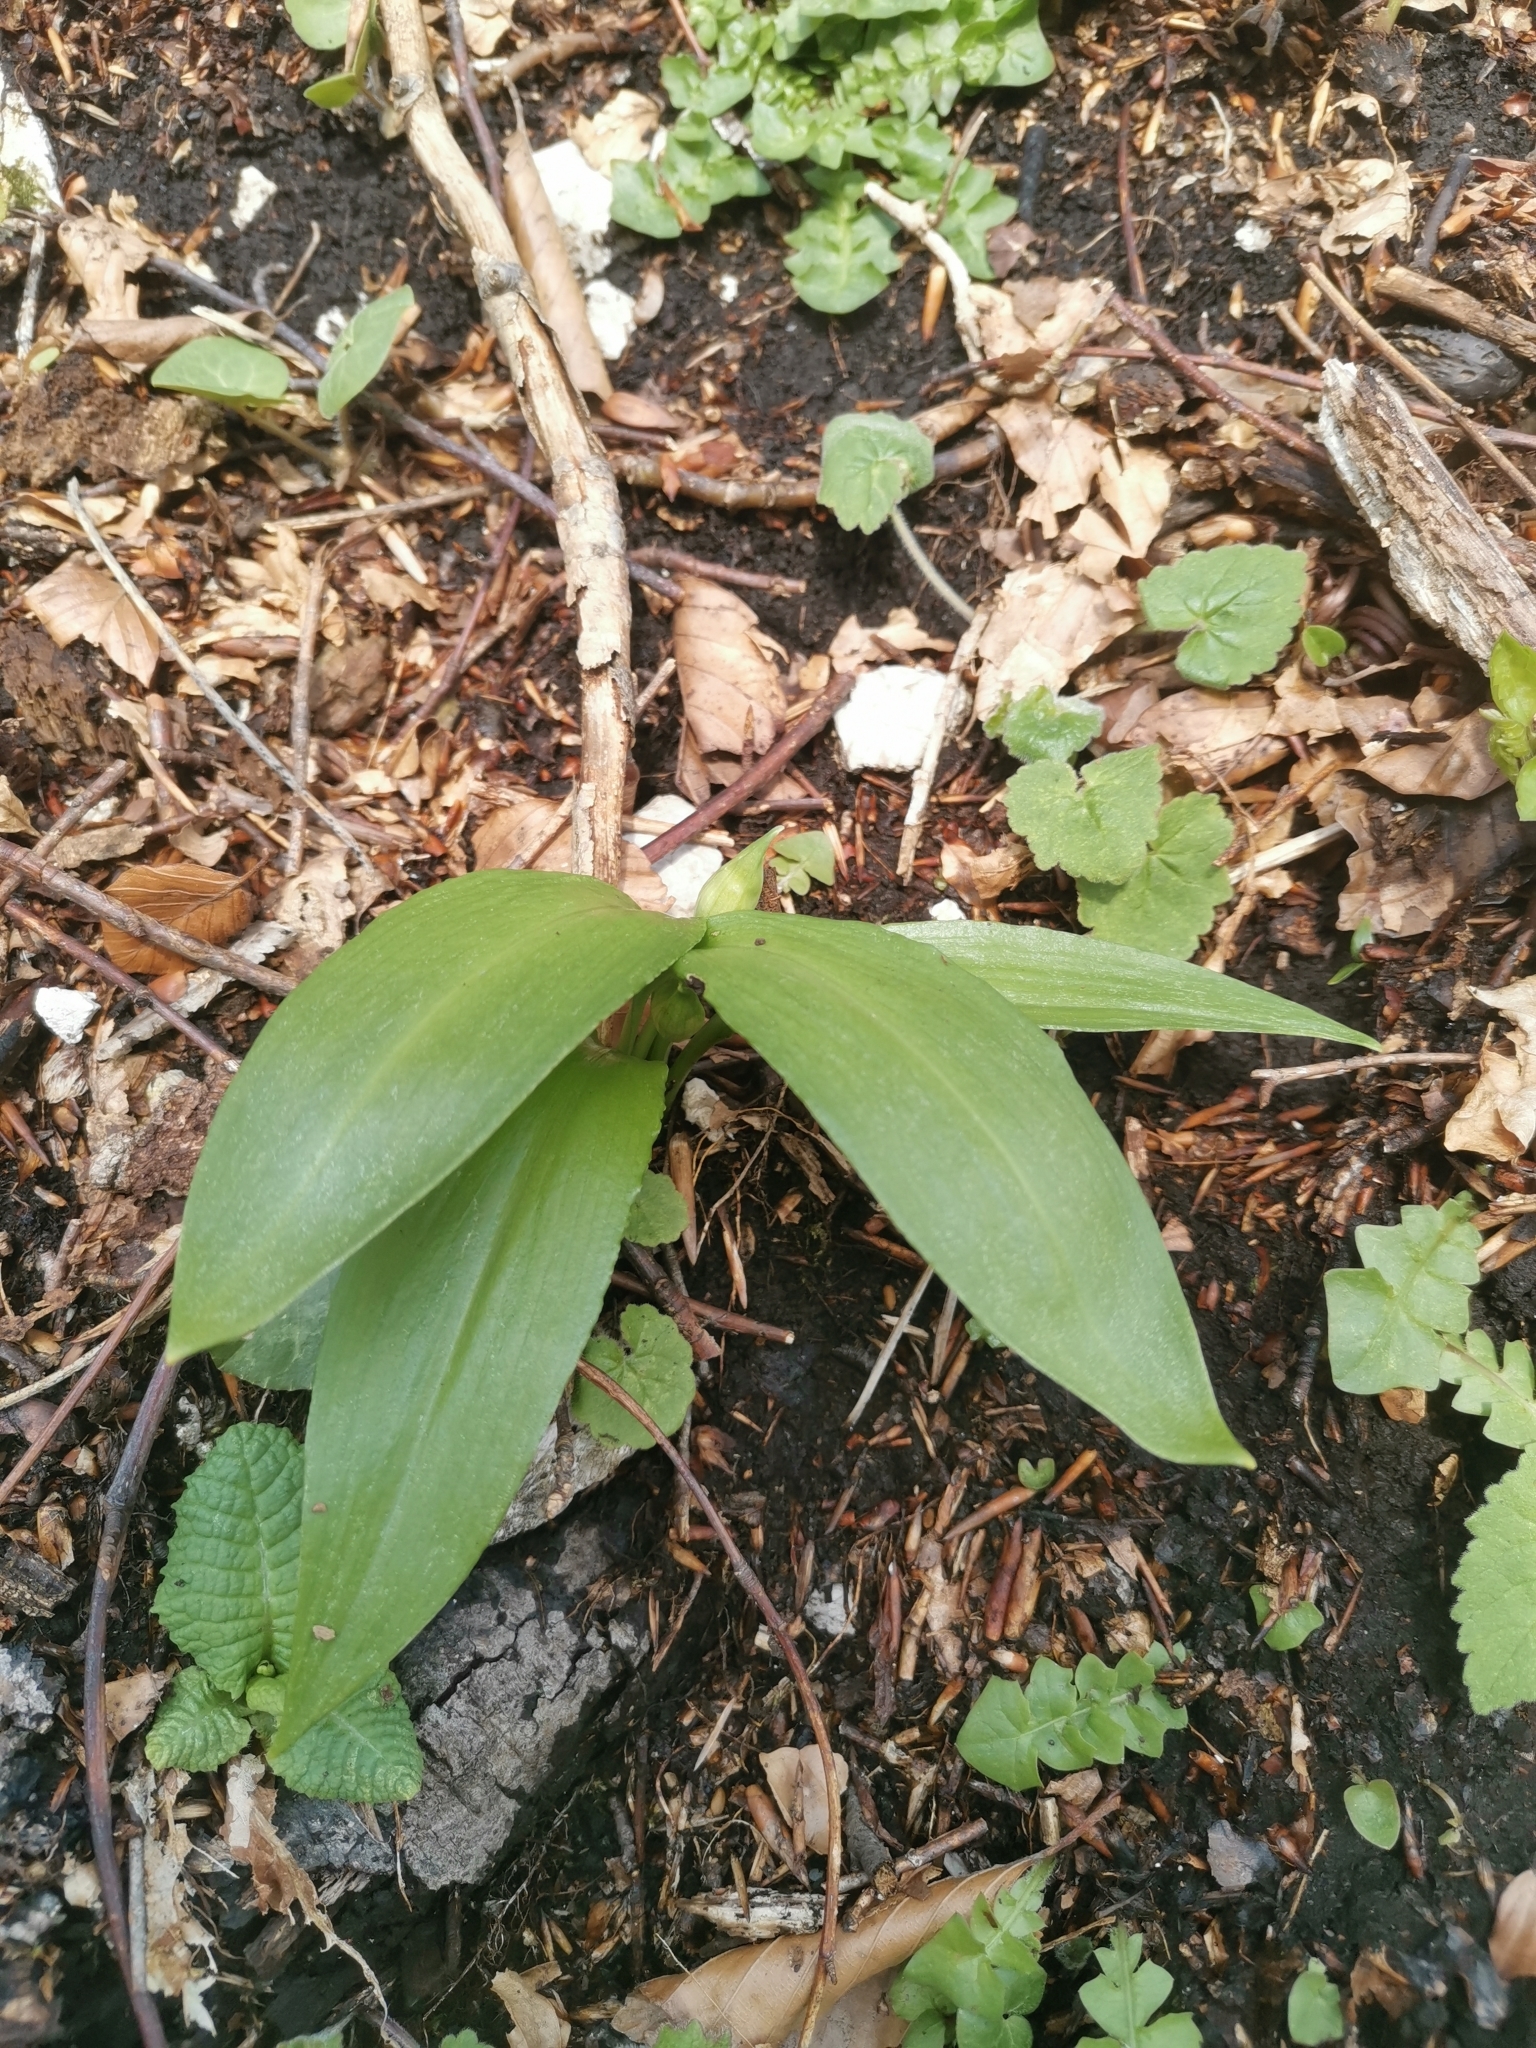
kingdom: Plantae
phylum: Tracheophyta
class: Liliopsida
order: Asparagales
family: Amaryllidaceae
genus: Allium
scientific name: Allium ursinum
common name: Ramsons
